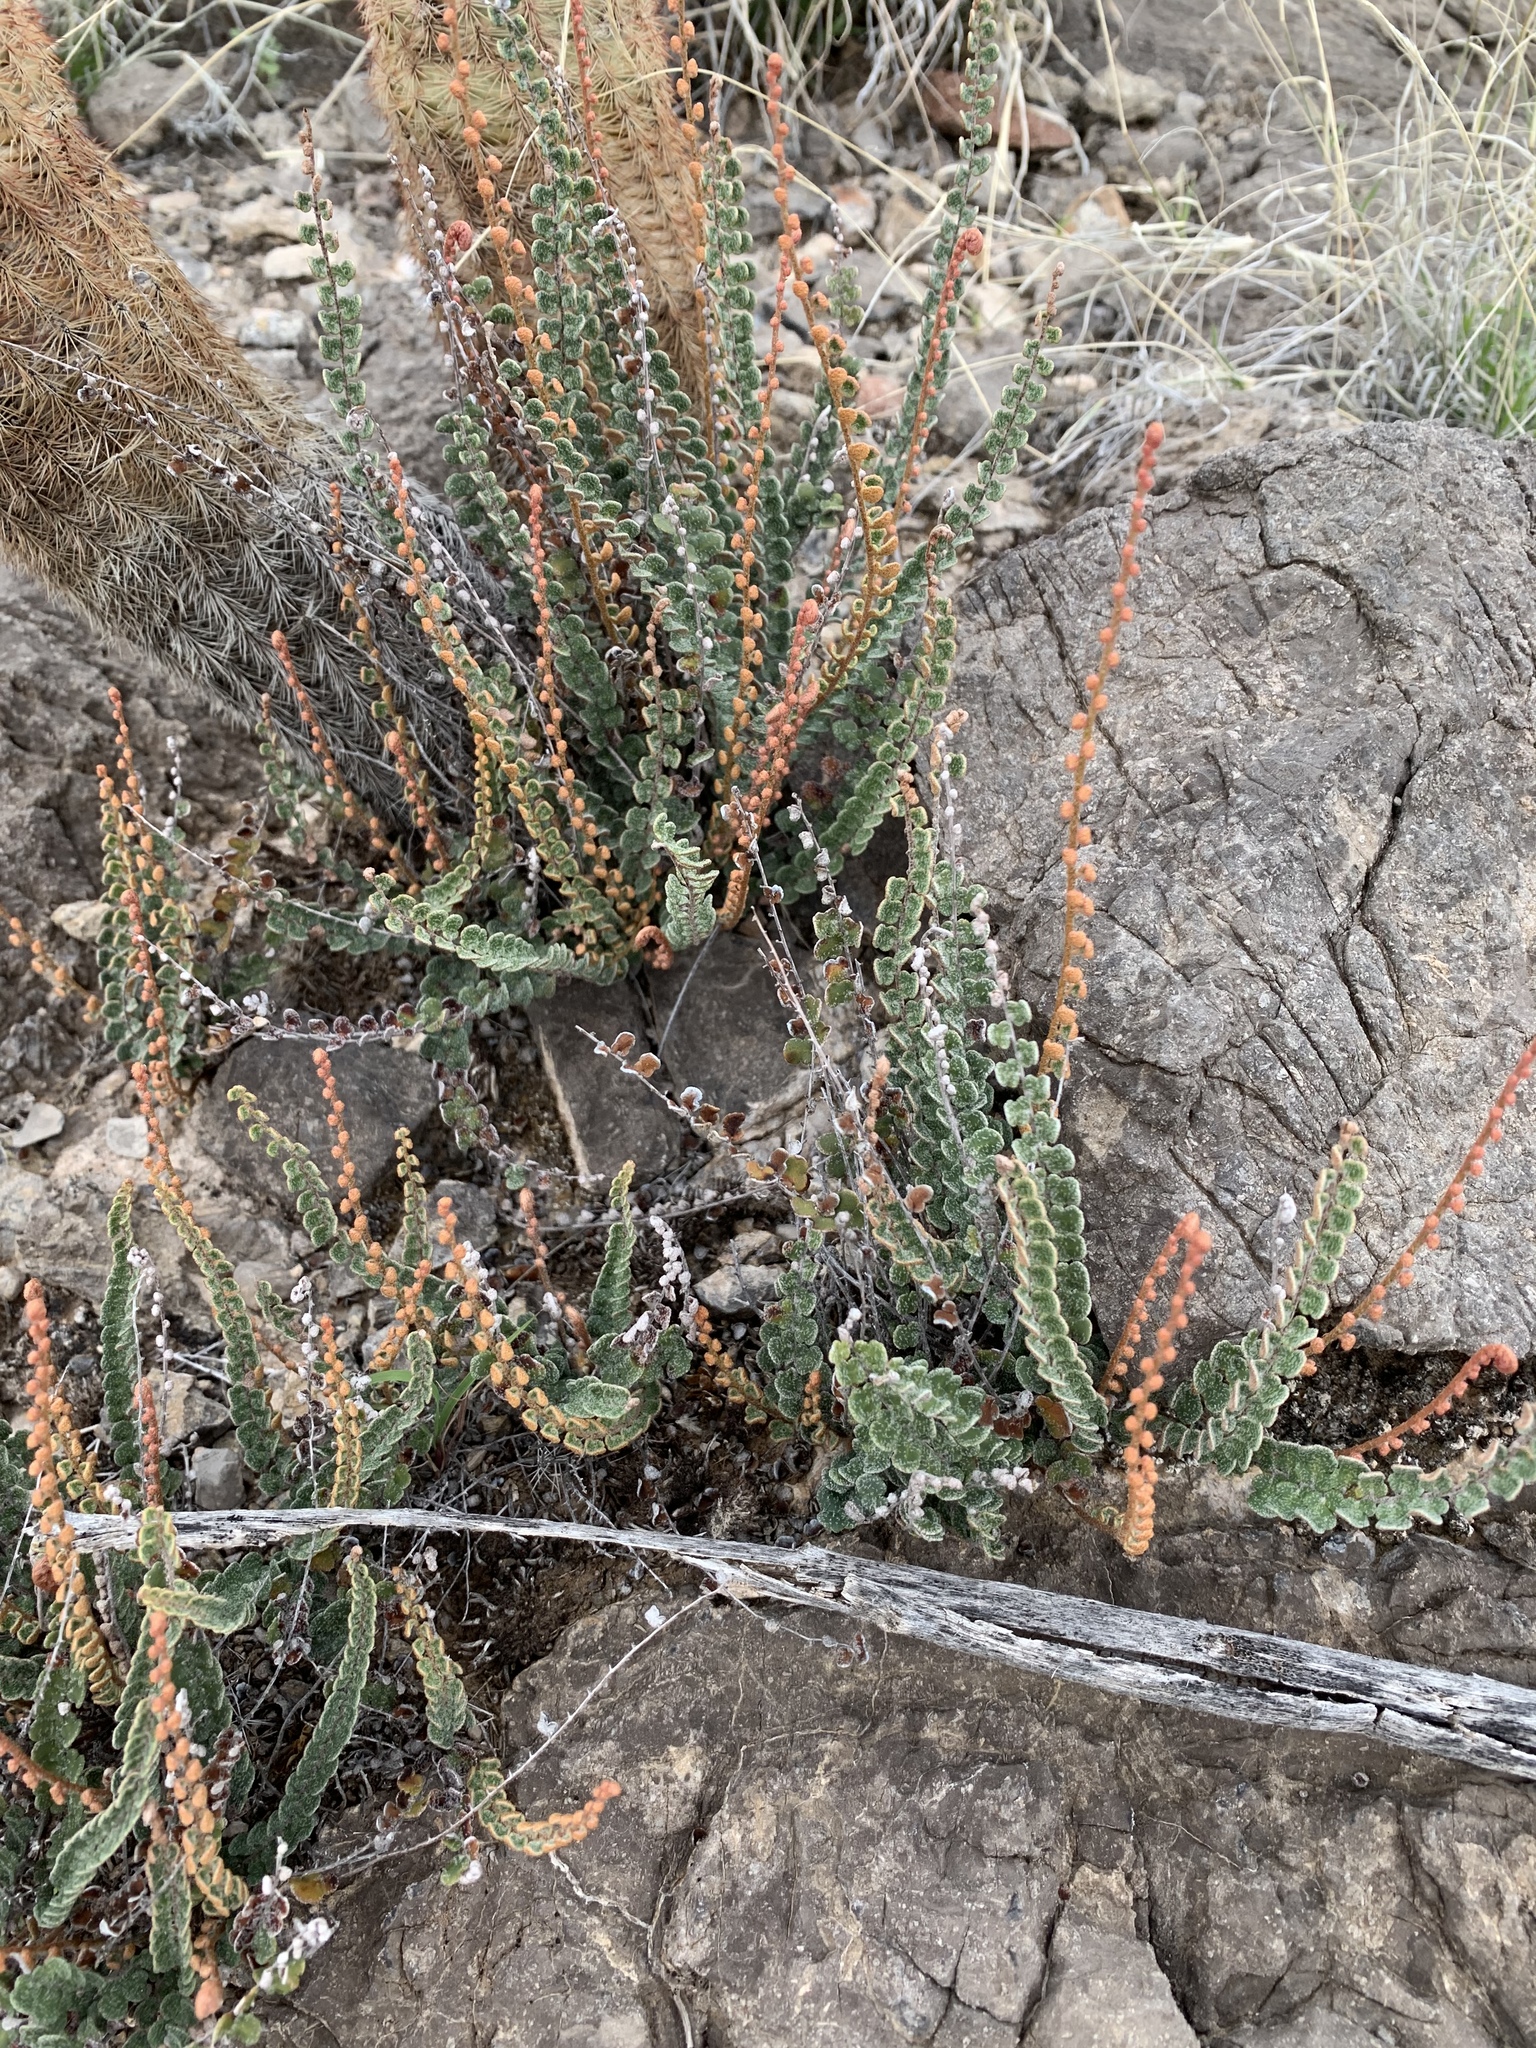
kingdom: Plantae
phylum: Tracheophyta
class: Polypodiopsida
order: Polypodiales
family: Pteridaceae
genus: Astrolepis
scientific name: Astrolepis cochisensis
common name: Scaly cloak fern
